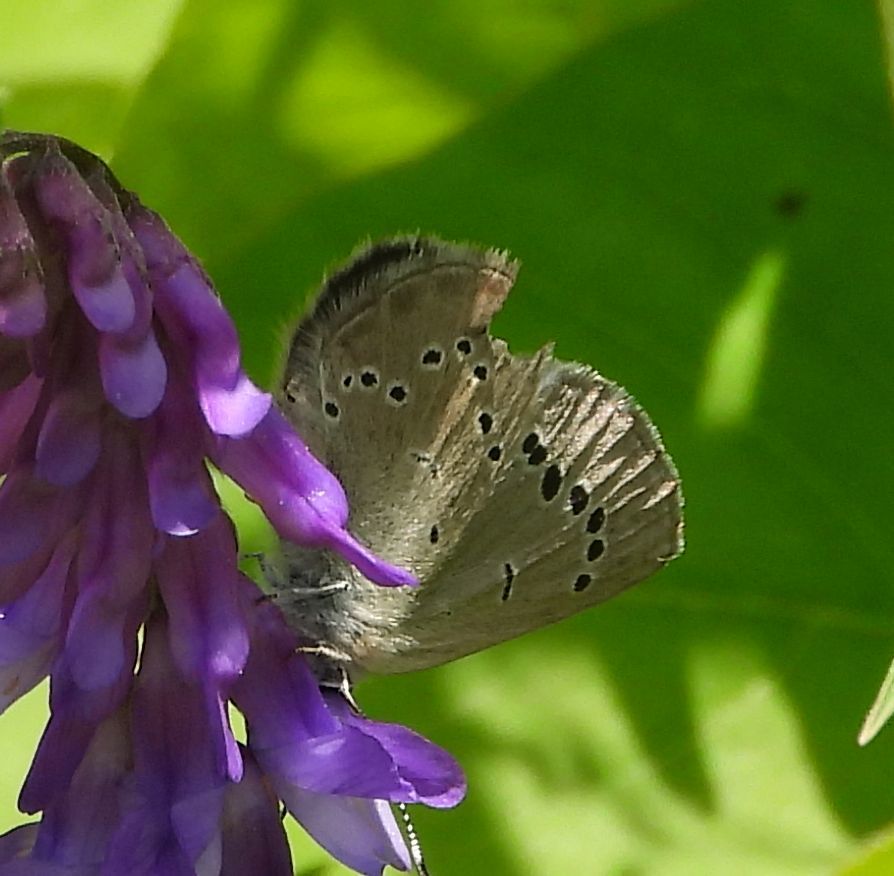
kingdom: Animalia
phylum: Arthropoda
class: Insecta
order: Lepidoptera
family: Lycaenidae
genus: Glaucopsyche
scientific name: Glaucopsyche lygdamus
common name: Silvery blue
